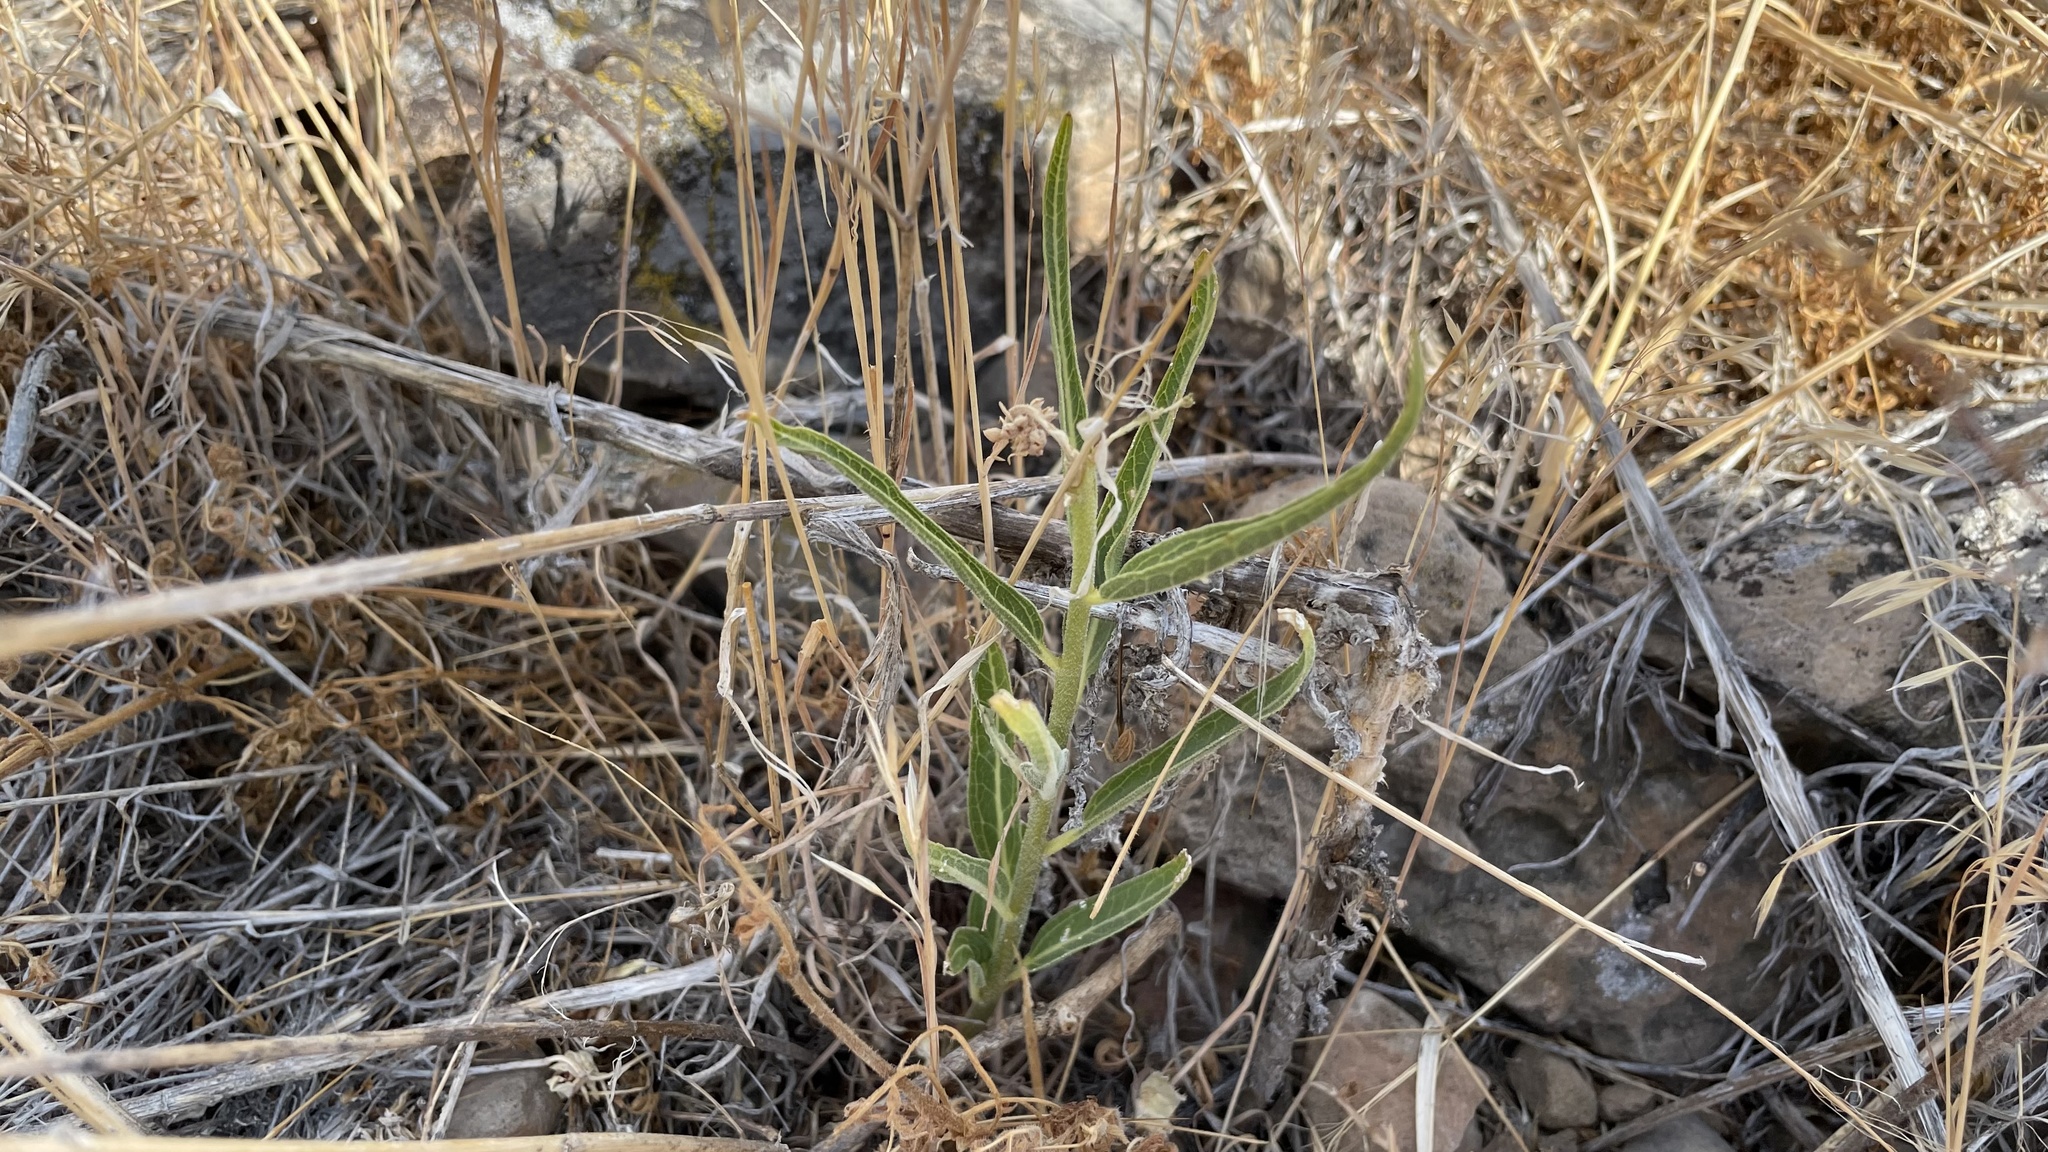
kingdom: Plantae
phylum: Tracheophyta
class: Magnoliopsida
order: Gentianales
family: Apocynaceae
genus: Asclepias
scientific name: Asclepias asperula
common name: Antelope horns
